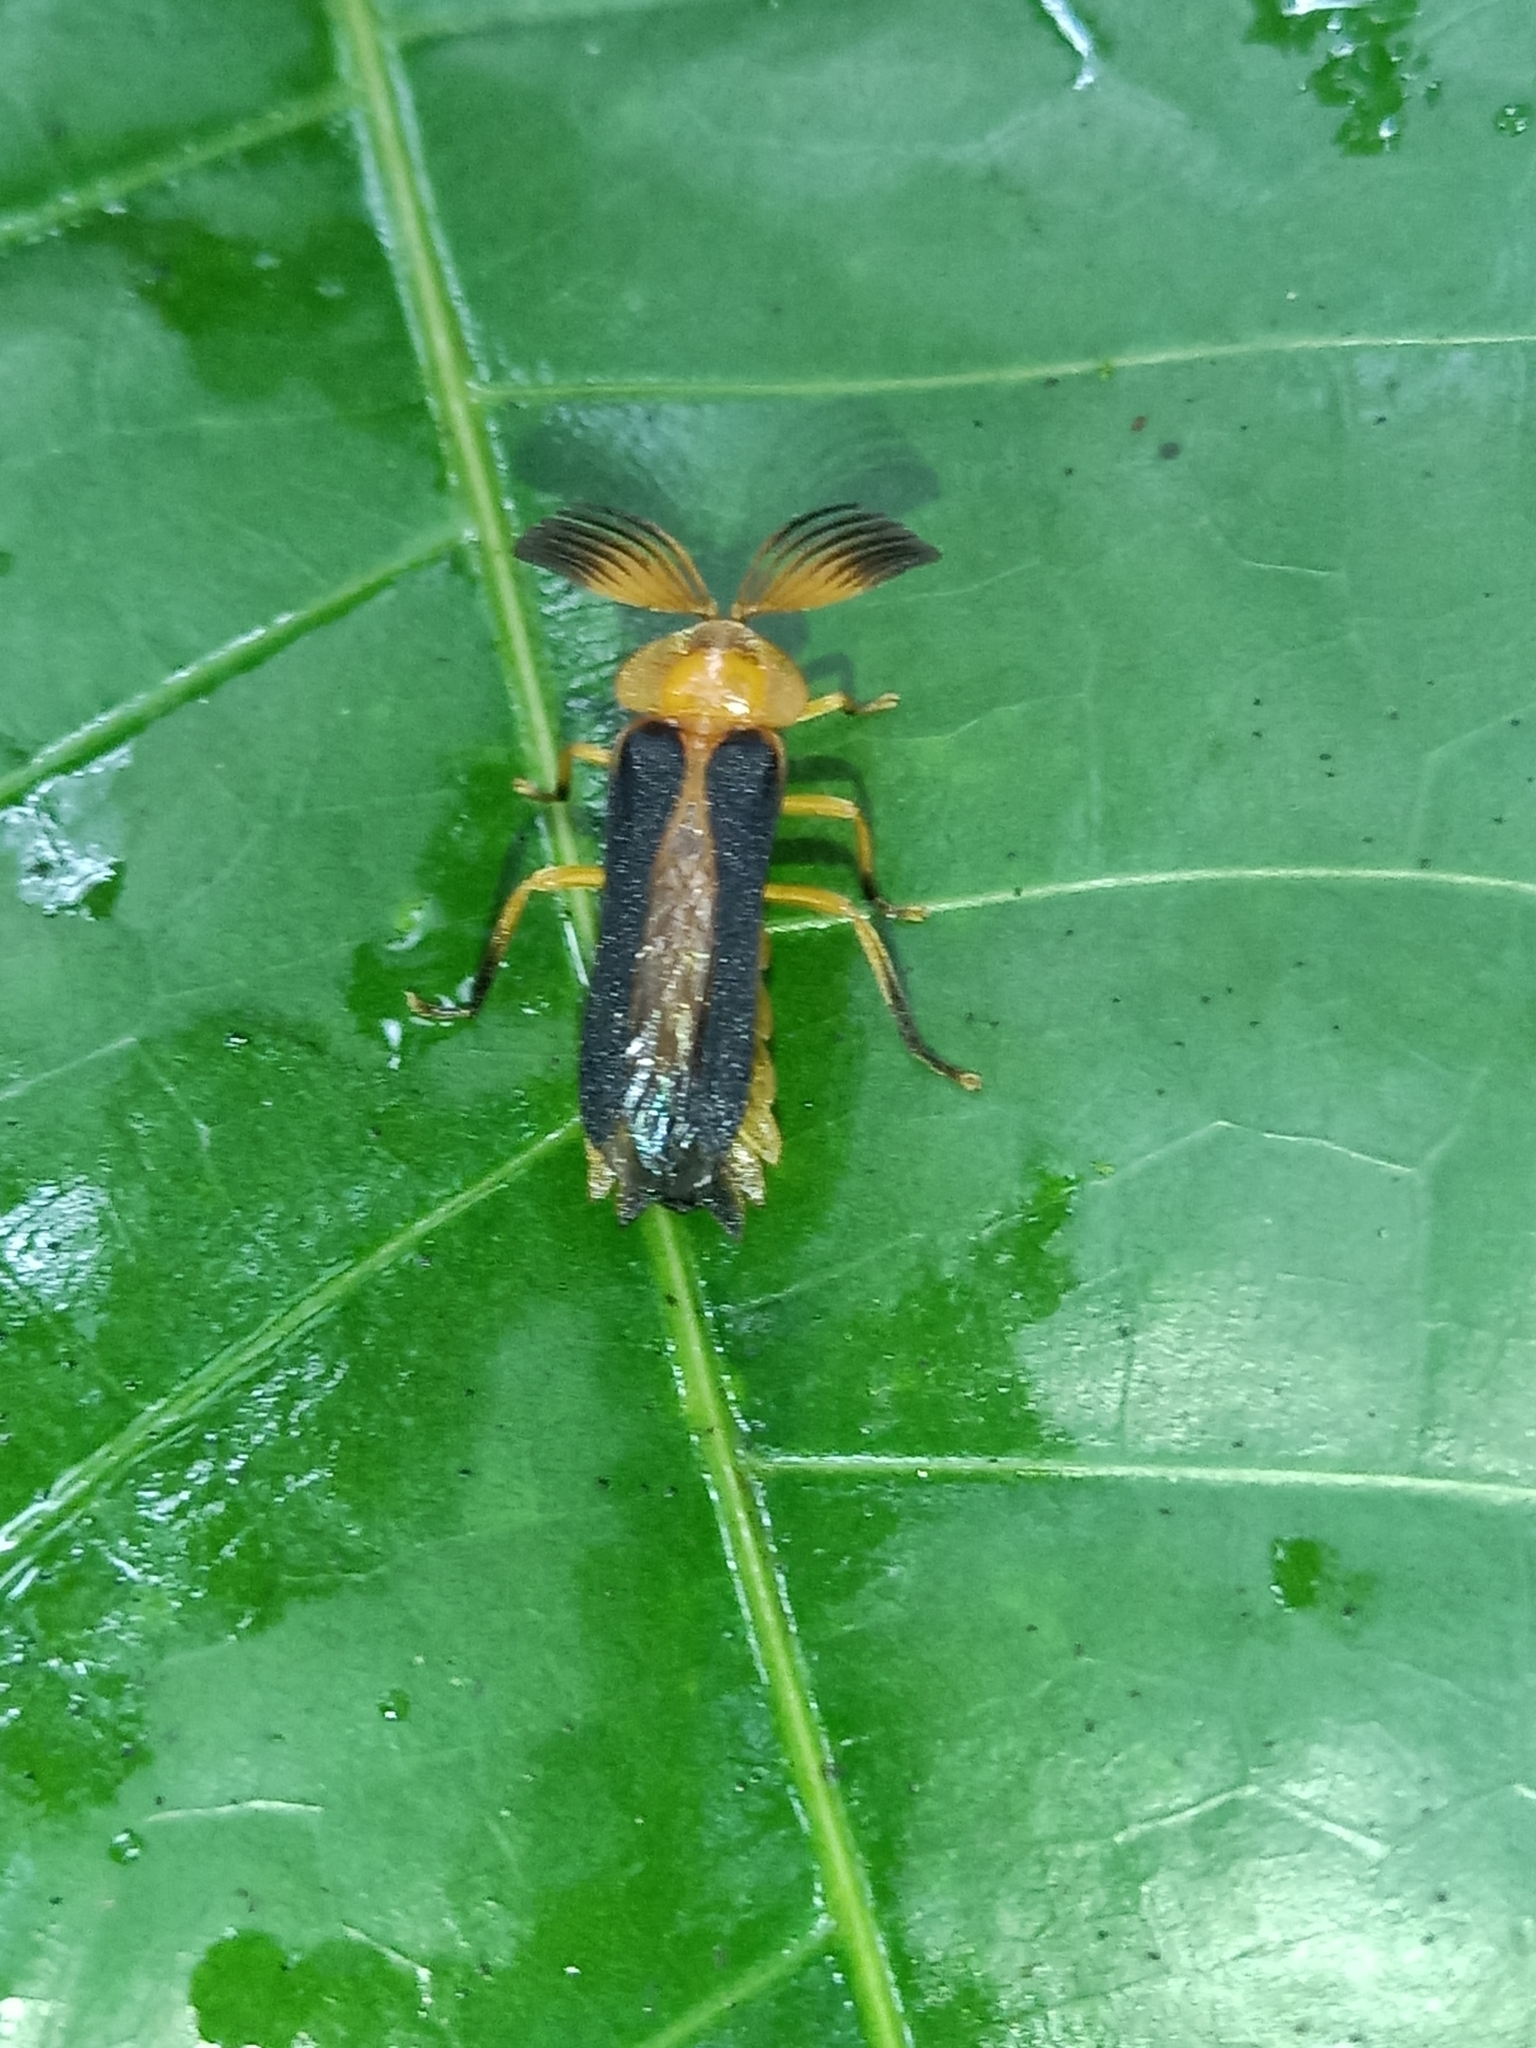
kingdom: Animalia
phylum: Arthropoda
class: Insecta
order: Coleoptera
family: Lampyridae
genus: Dryptelytra
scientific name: Dryptelytra cayennensis
